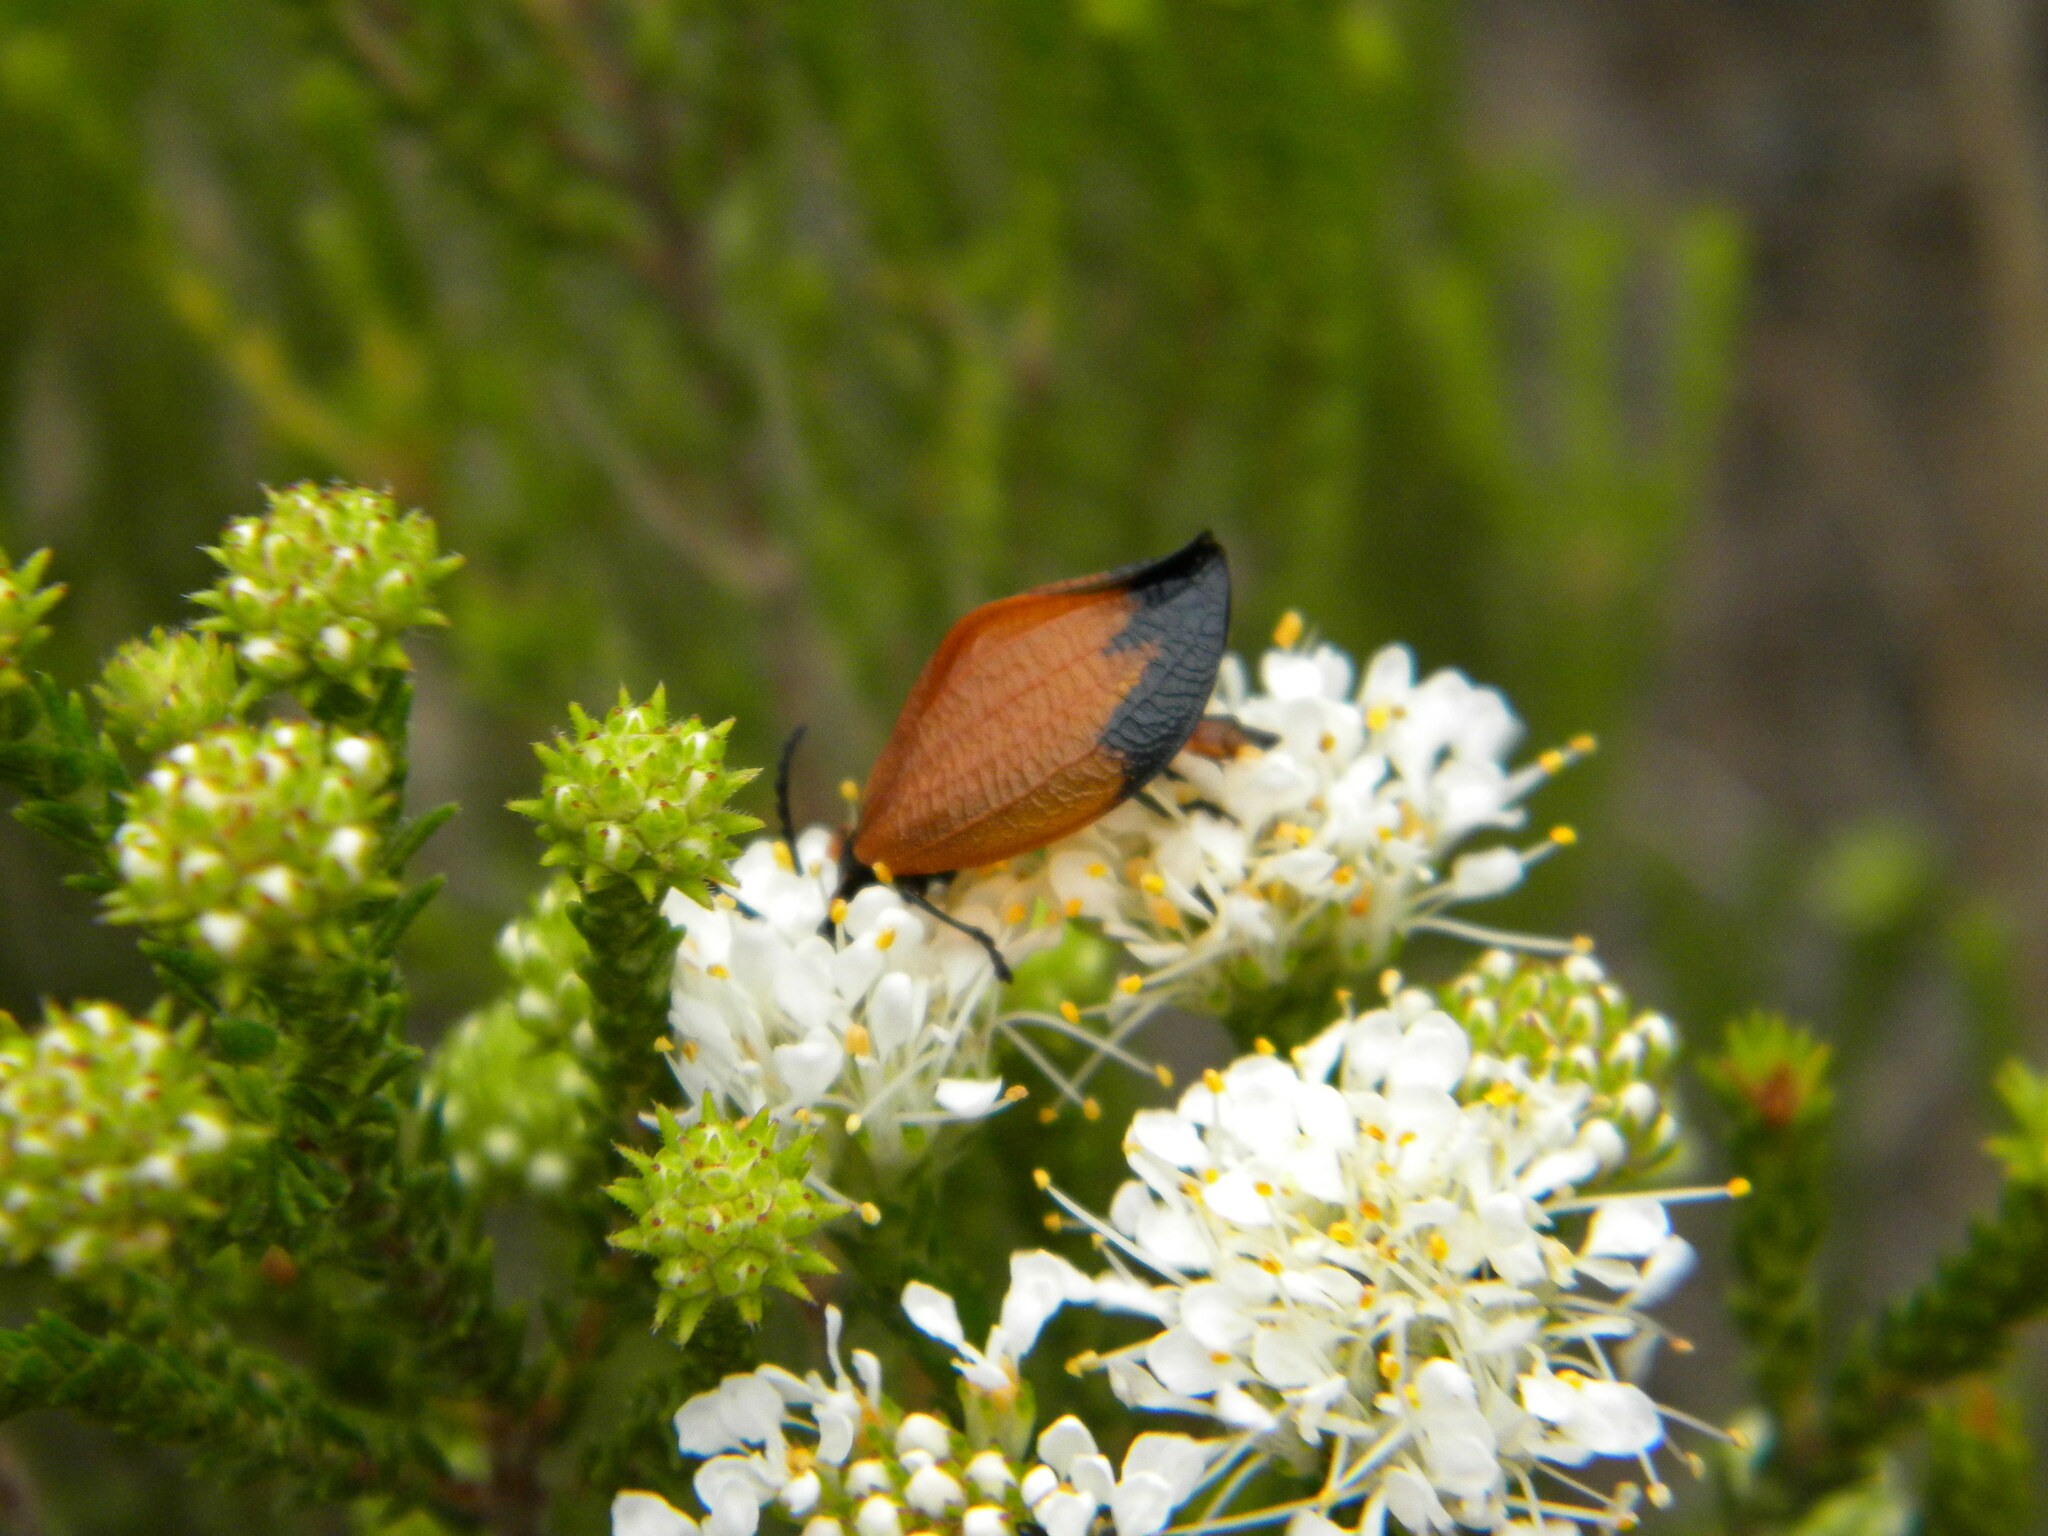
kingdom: Animalia
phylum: Arthropoda
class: Insecta
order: Coleoptera
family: Lycidae
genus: Lycus
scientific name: Lycus
